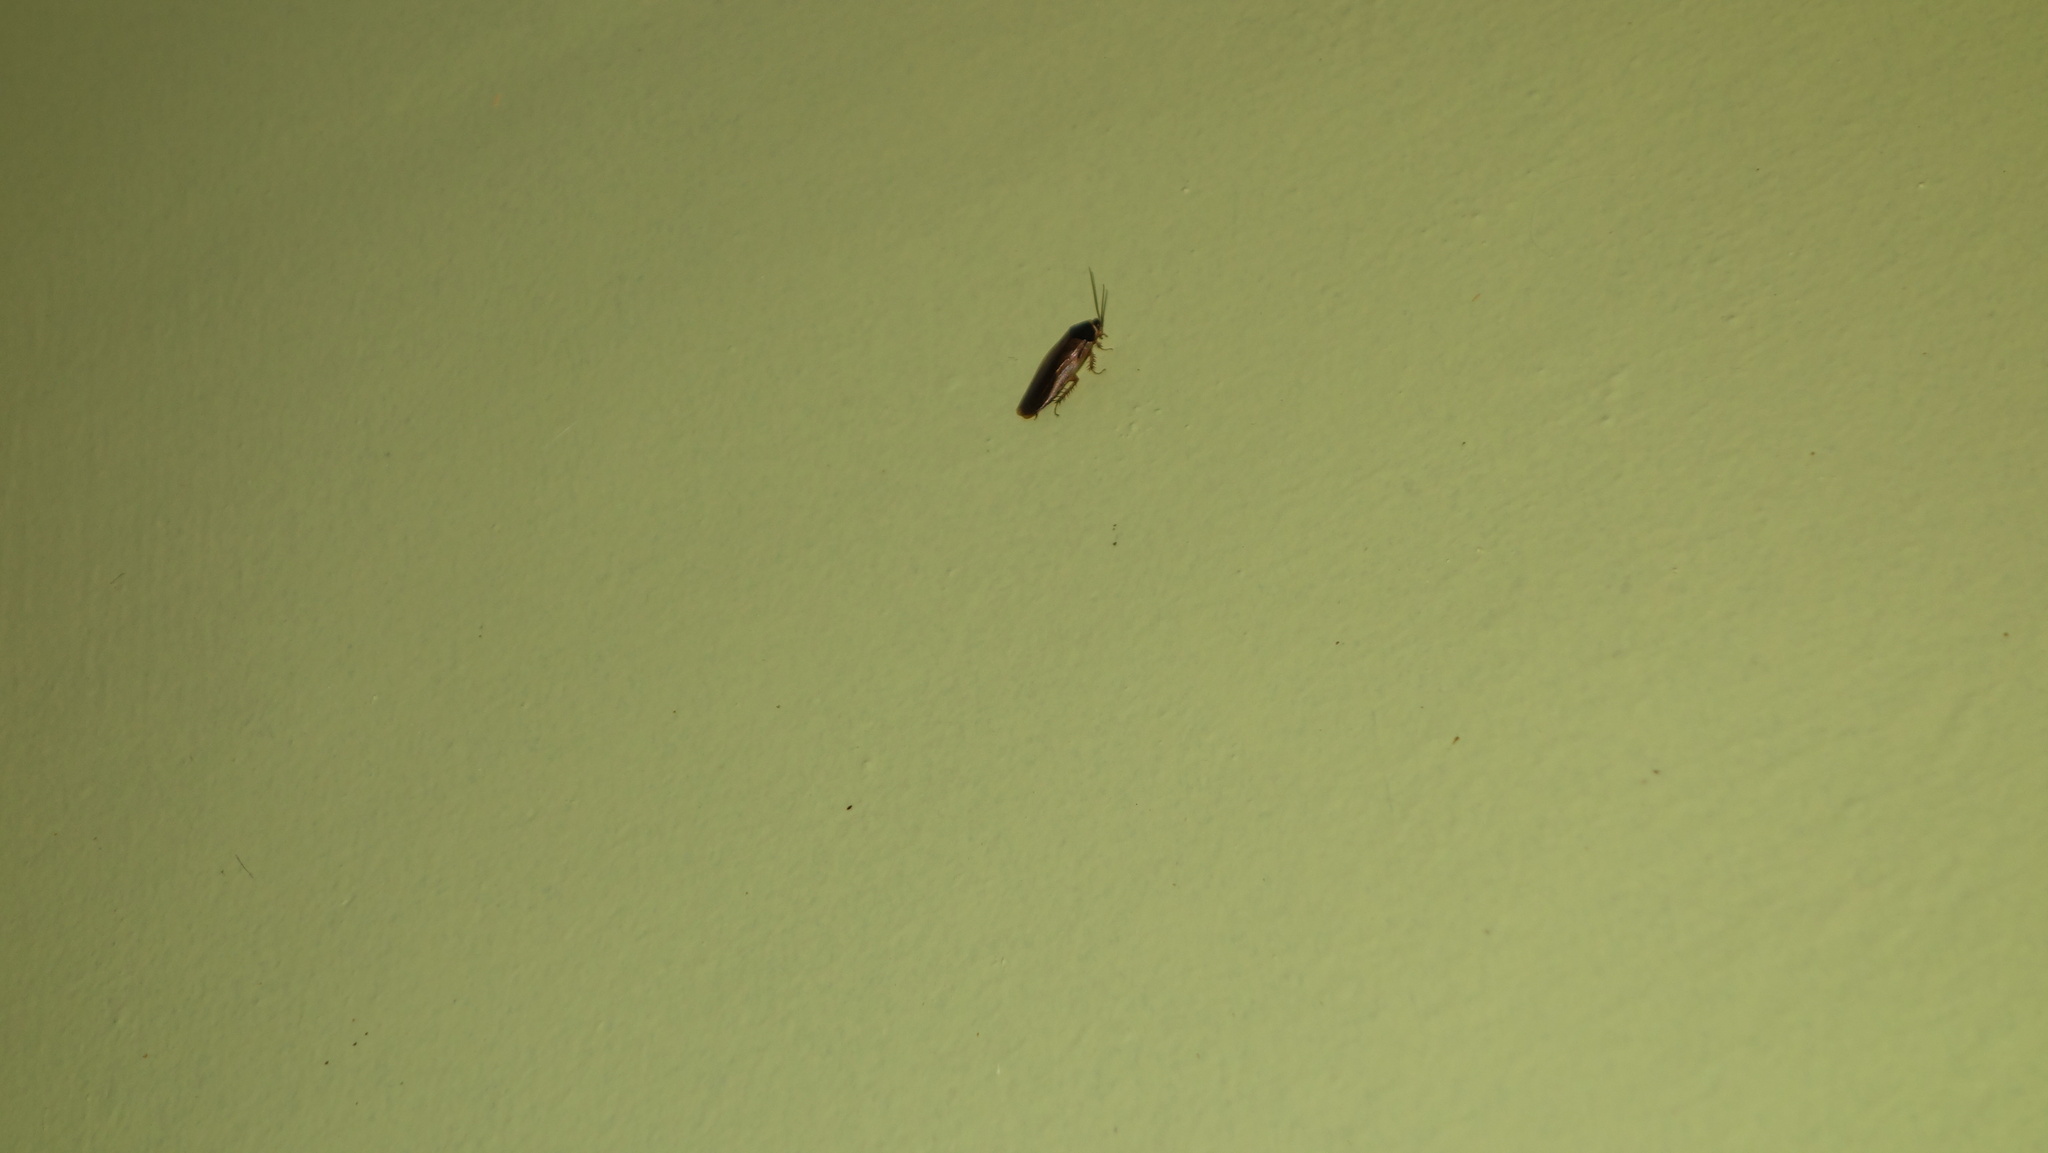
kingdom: Animalia
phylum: Arthropoda
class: Insecta
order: Blattodea
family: Blaberidae
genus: Pycnoscelus
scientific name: Pycnoscelus indicus
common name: Burrowing cockroach
